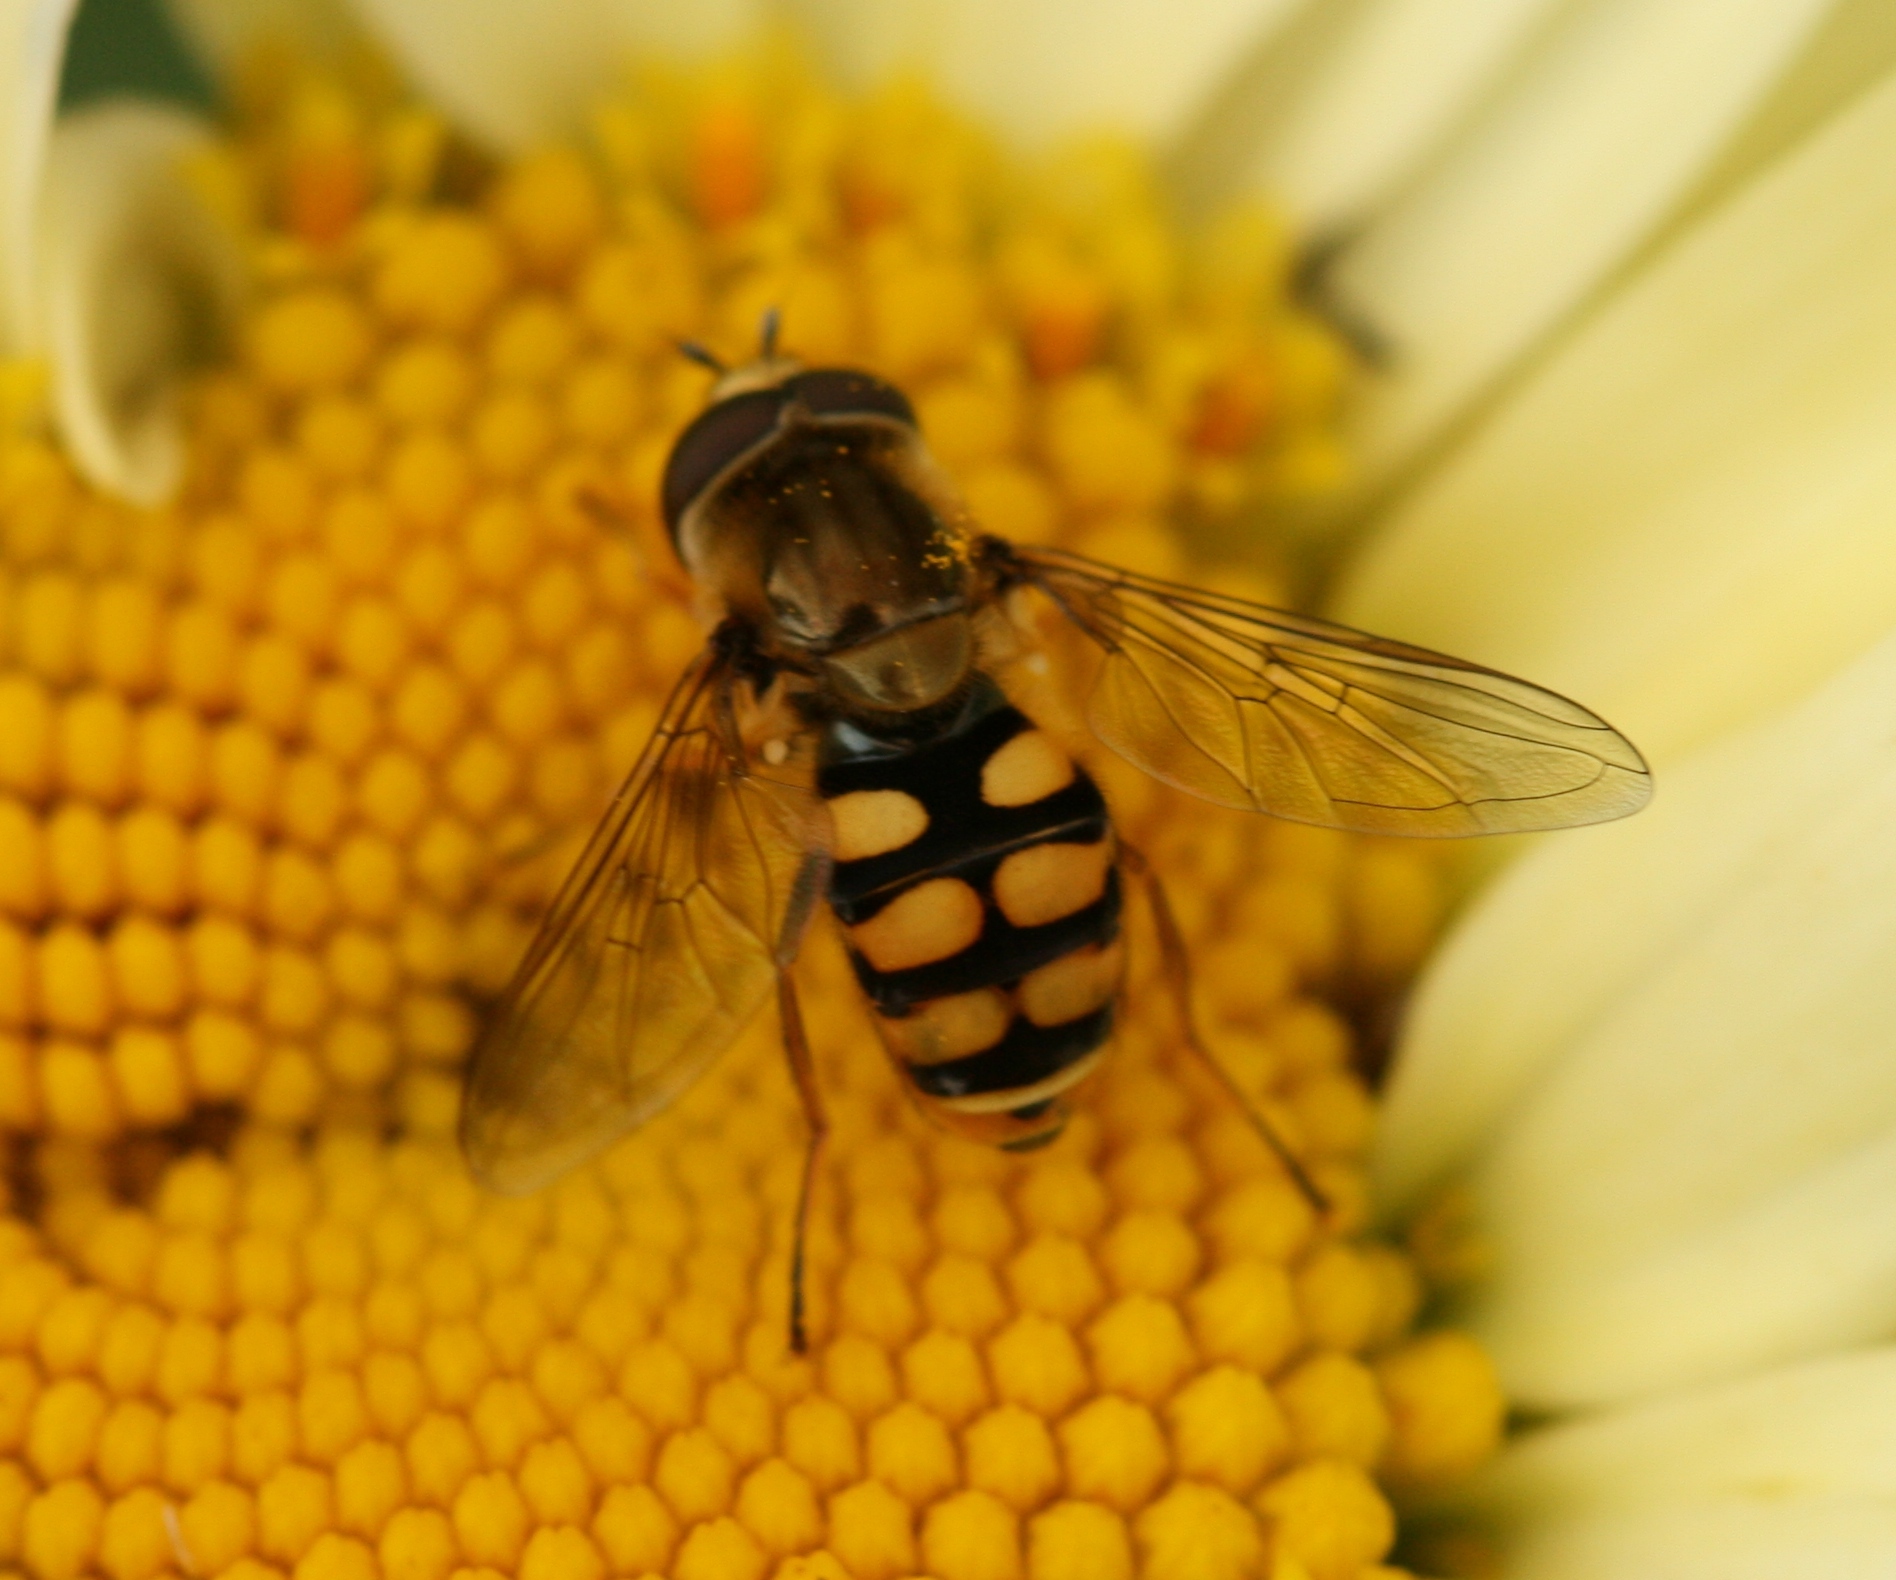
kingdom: Animalia
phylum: Arthropoda
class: Insecta
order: Diptera
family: Syrphidae
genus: Eupeodes
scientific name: Eupeodes corollae
